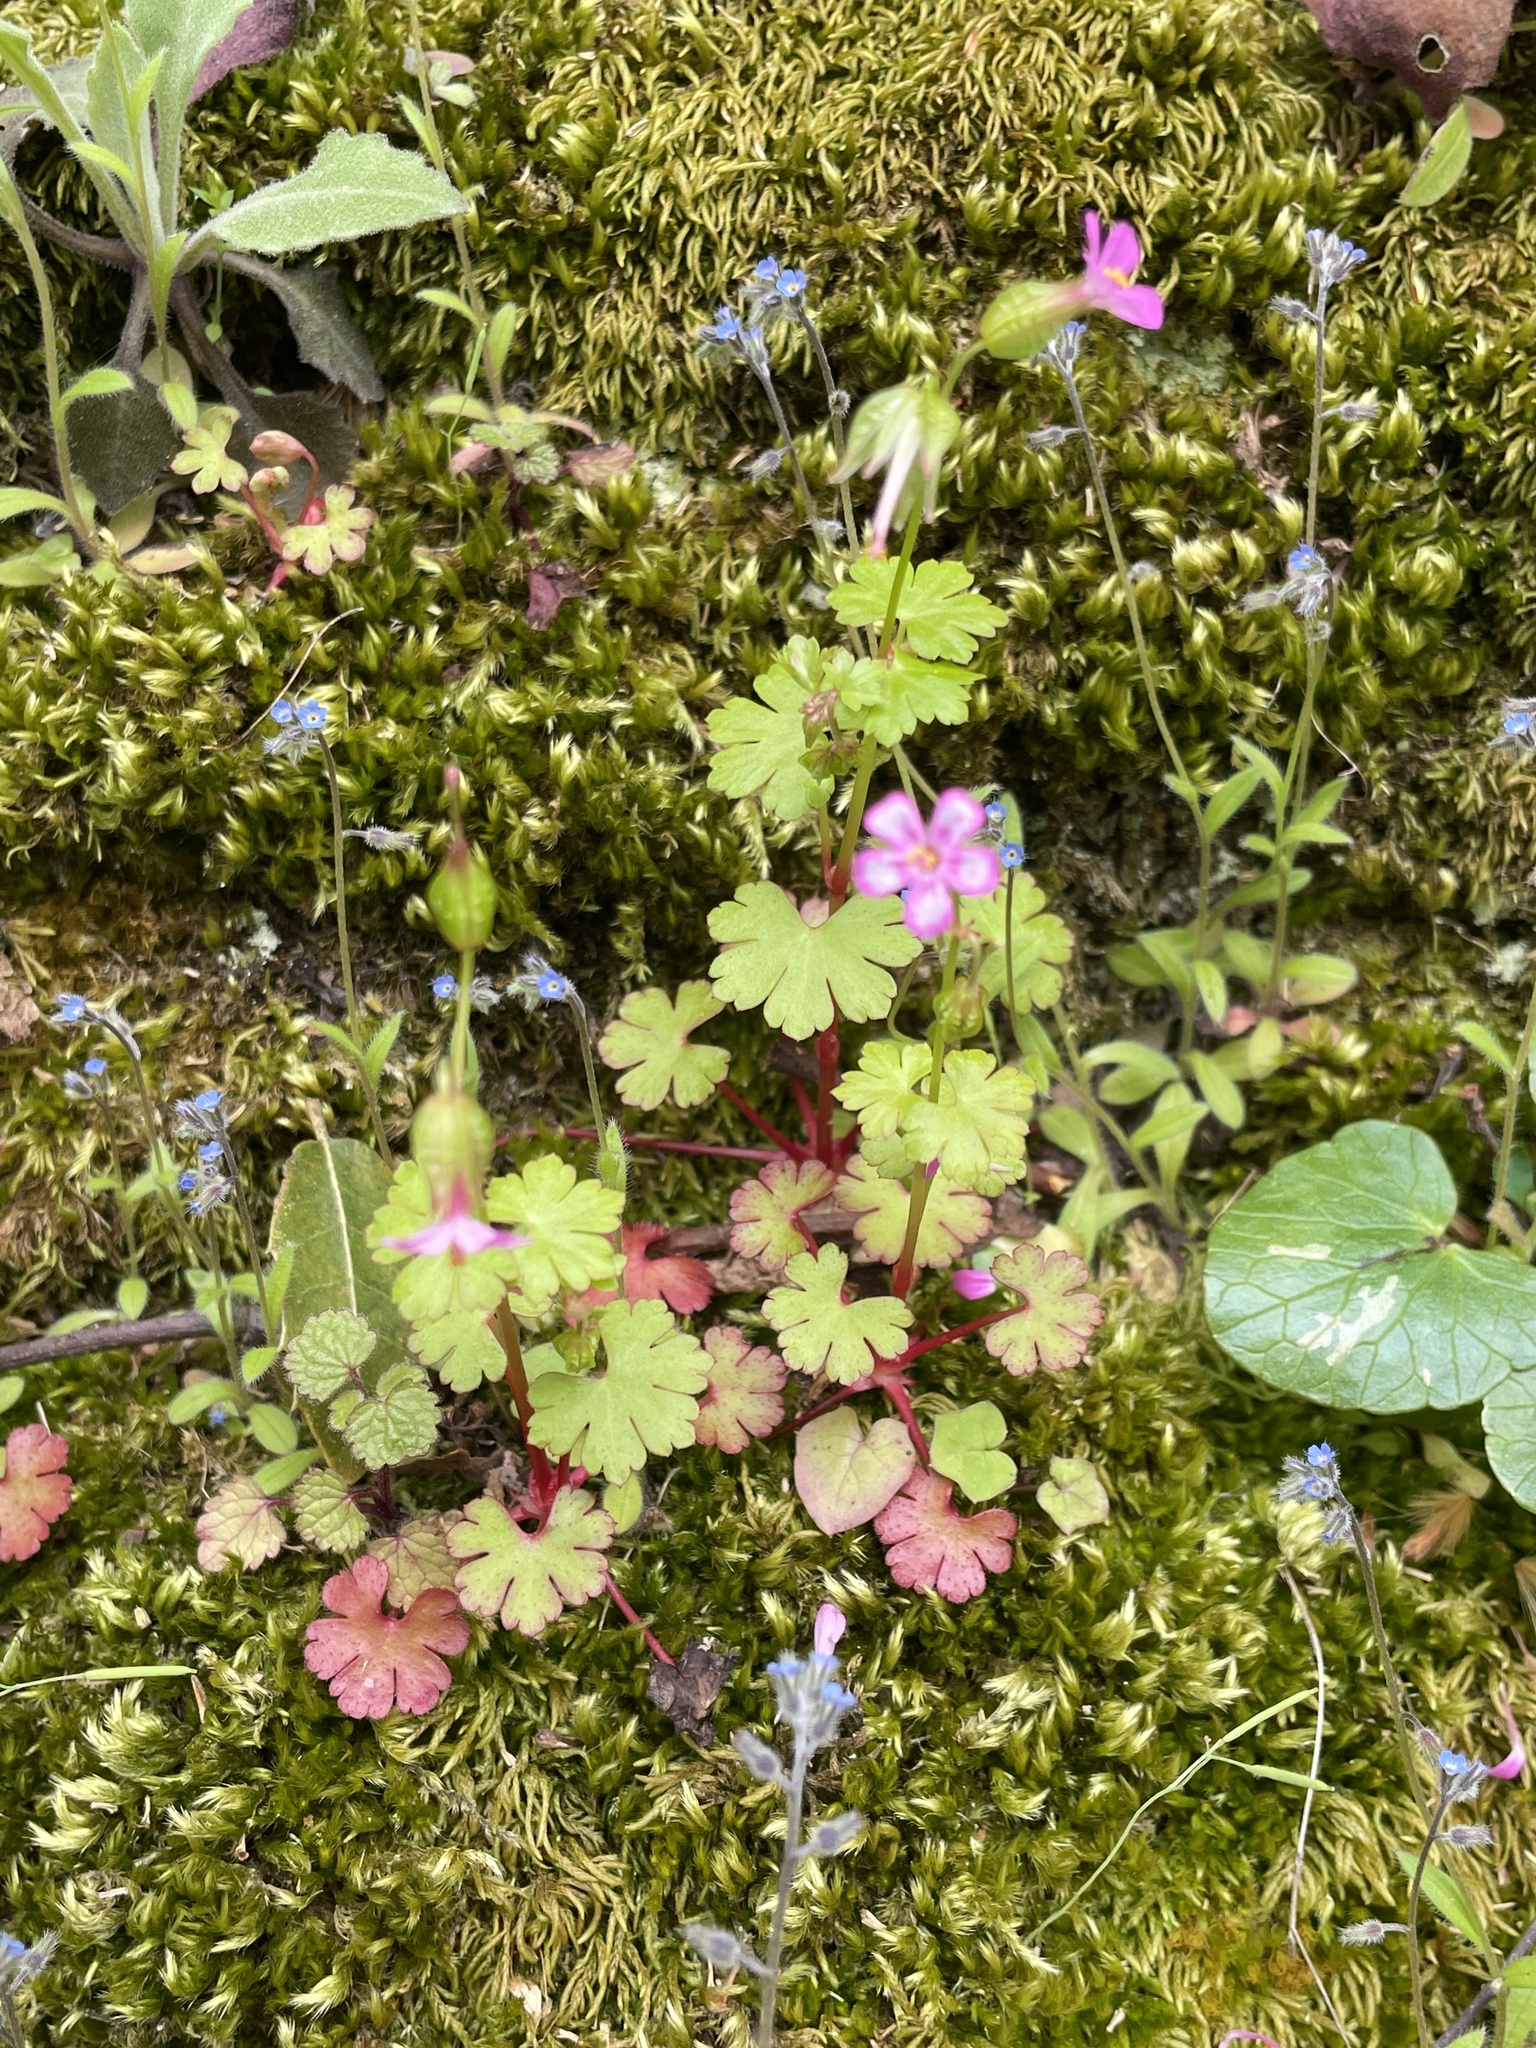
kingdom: Plantae
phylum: Tracheophyta
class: Magnoliopsida
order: Geraniales
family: Geraniaceae
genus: Geranium
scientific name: Geranium lucidum
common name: Shining crane's-bill
